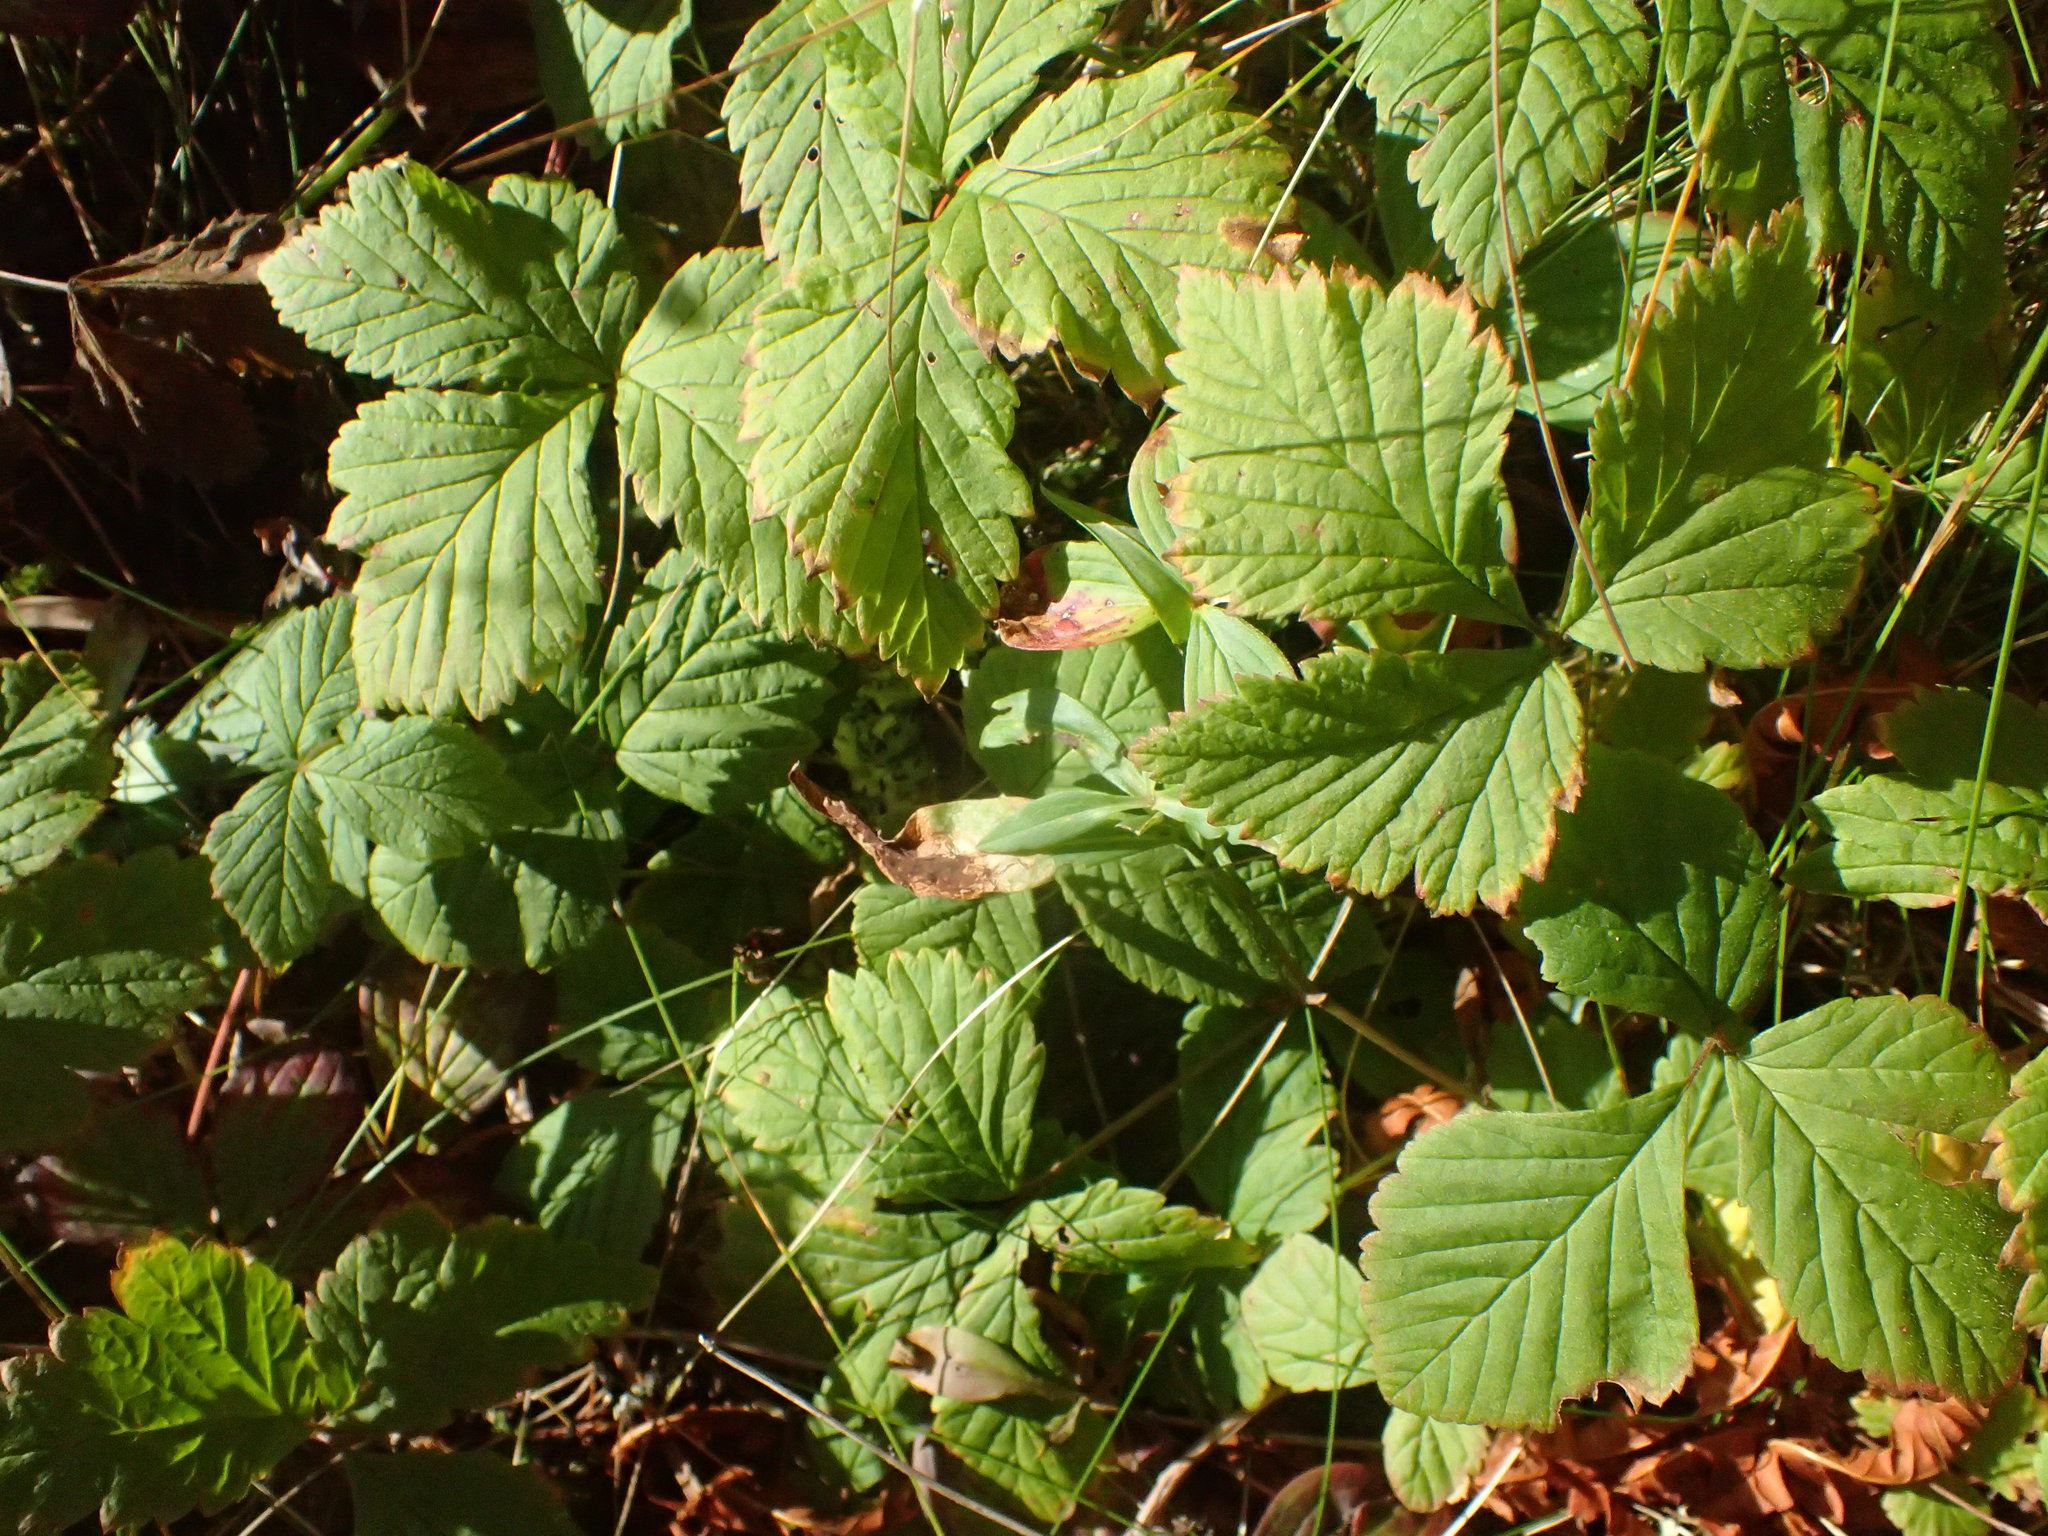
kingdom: Plantae
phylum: Tracheophyta
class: Magnoliopsida
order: Rosales
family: Rosaceae
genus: Rubus
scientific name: Rubus pubescens
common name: Dwarf raspberry
